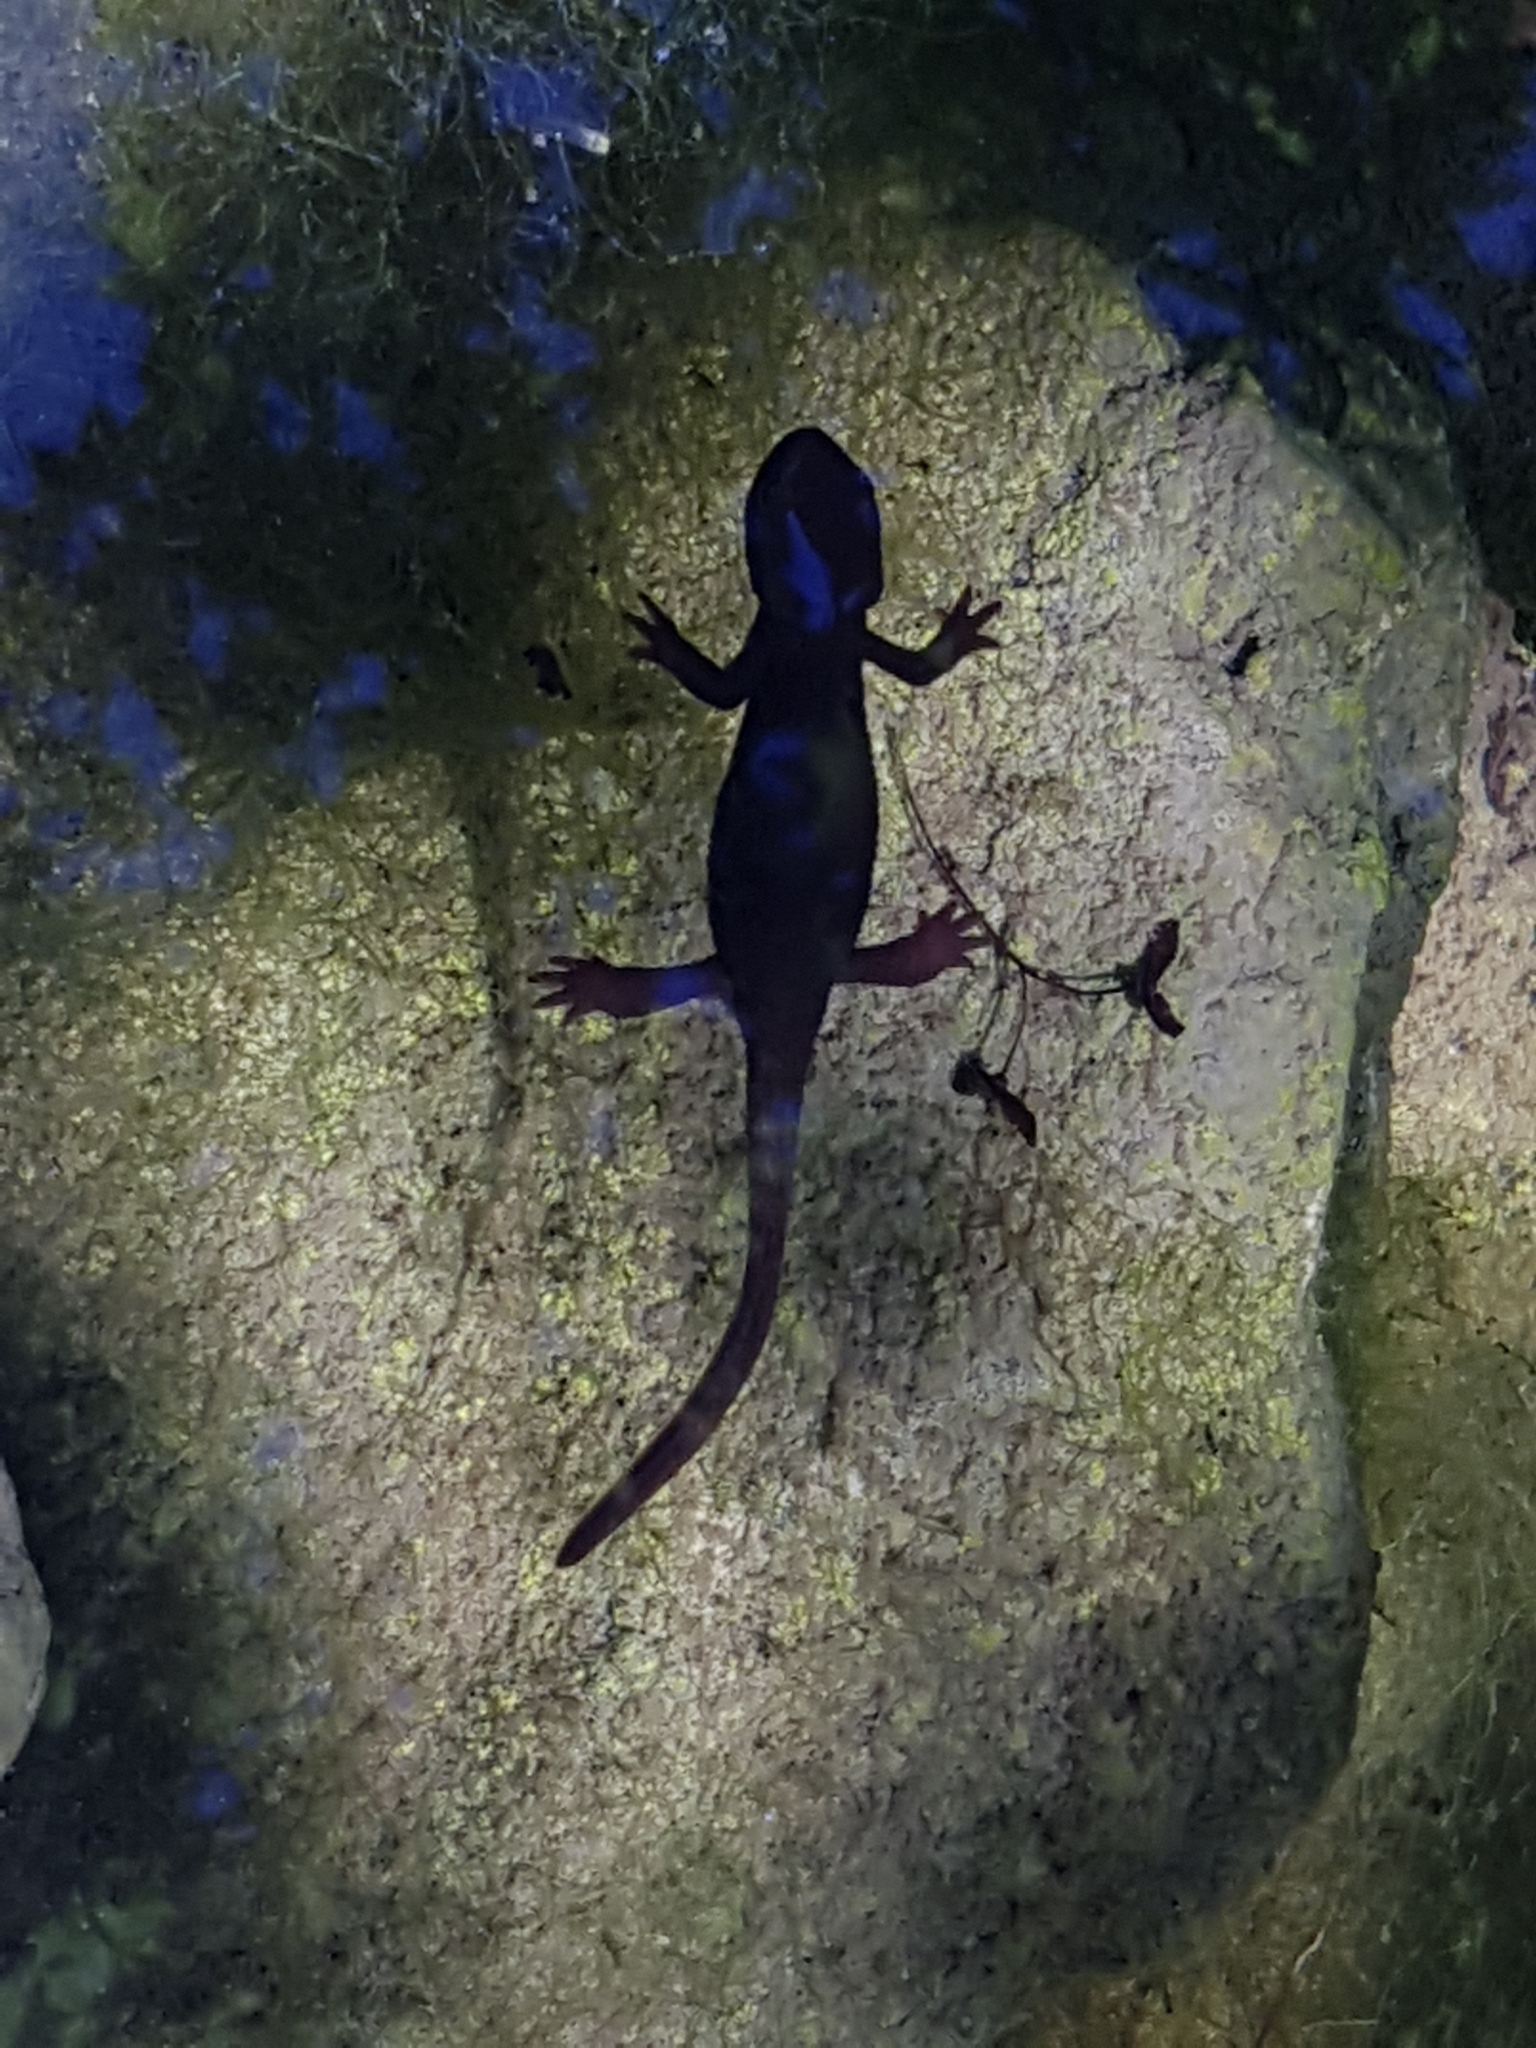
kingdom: Animalia
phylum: Chordata
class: Amphibia
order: Caudata
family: Salamandridae
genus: Taricha
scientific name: Taricha granulosa
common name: Roughskin newt
